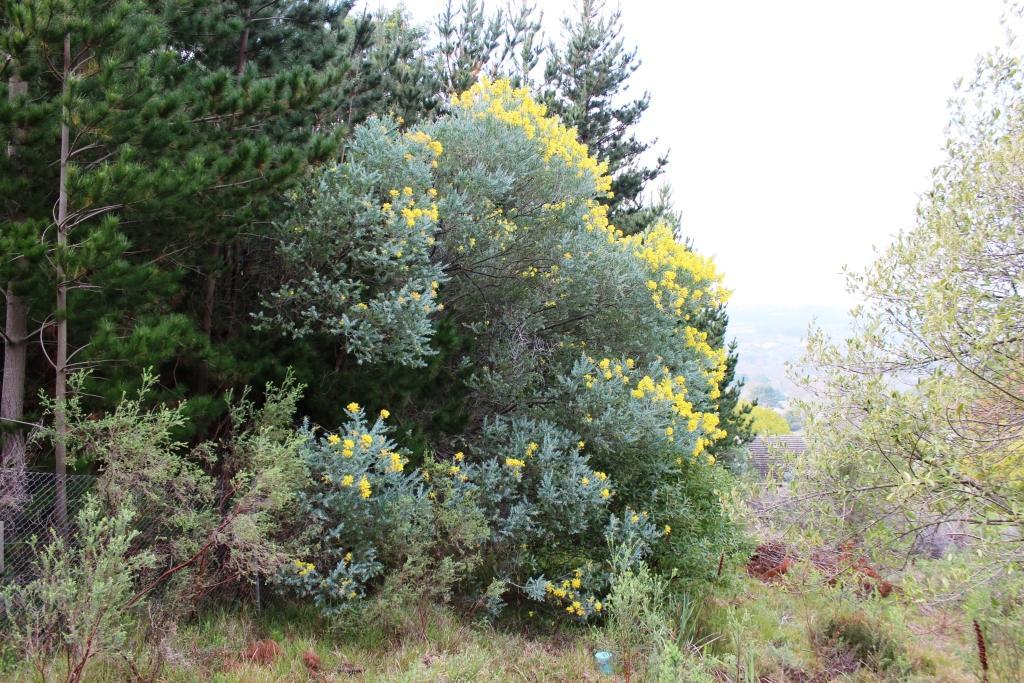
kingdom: Plantae
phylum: Tracheophyta
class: Magnoliopsida
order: Fabales
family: Fabaceae
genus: Acacia
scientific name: Acacia podalyriifolia
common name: Pearl wattle
